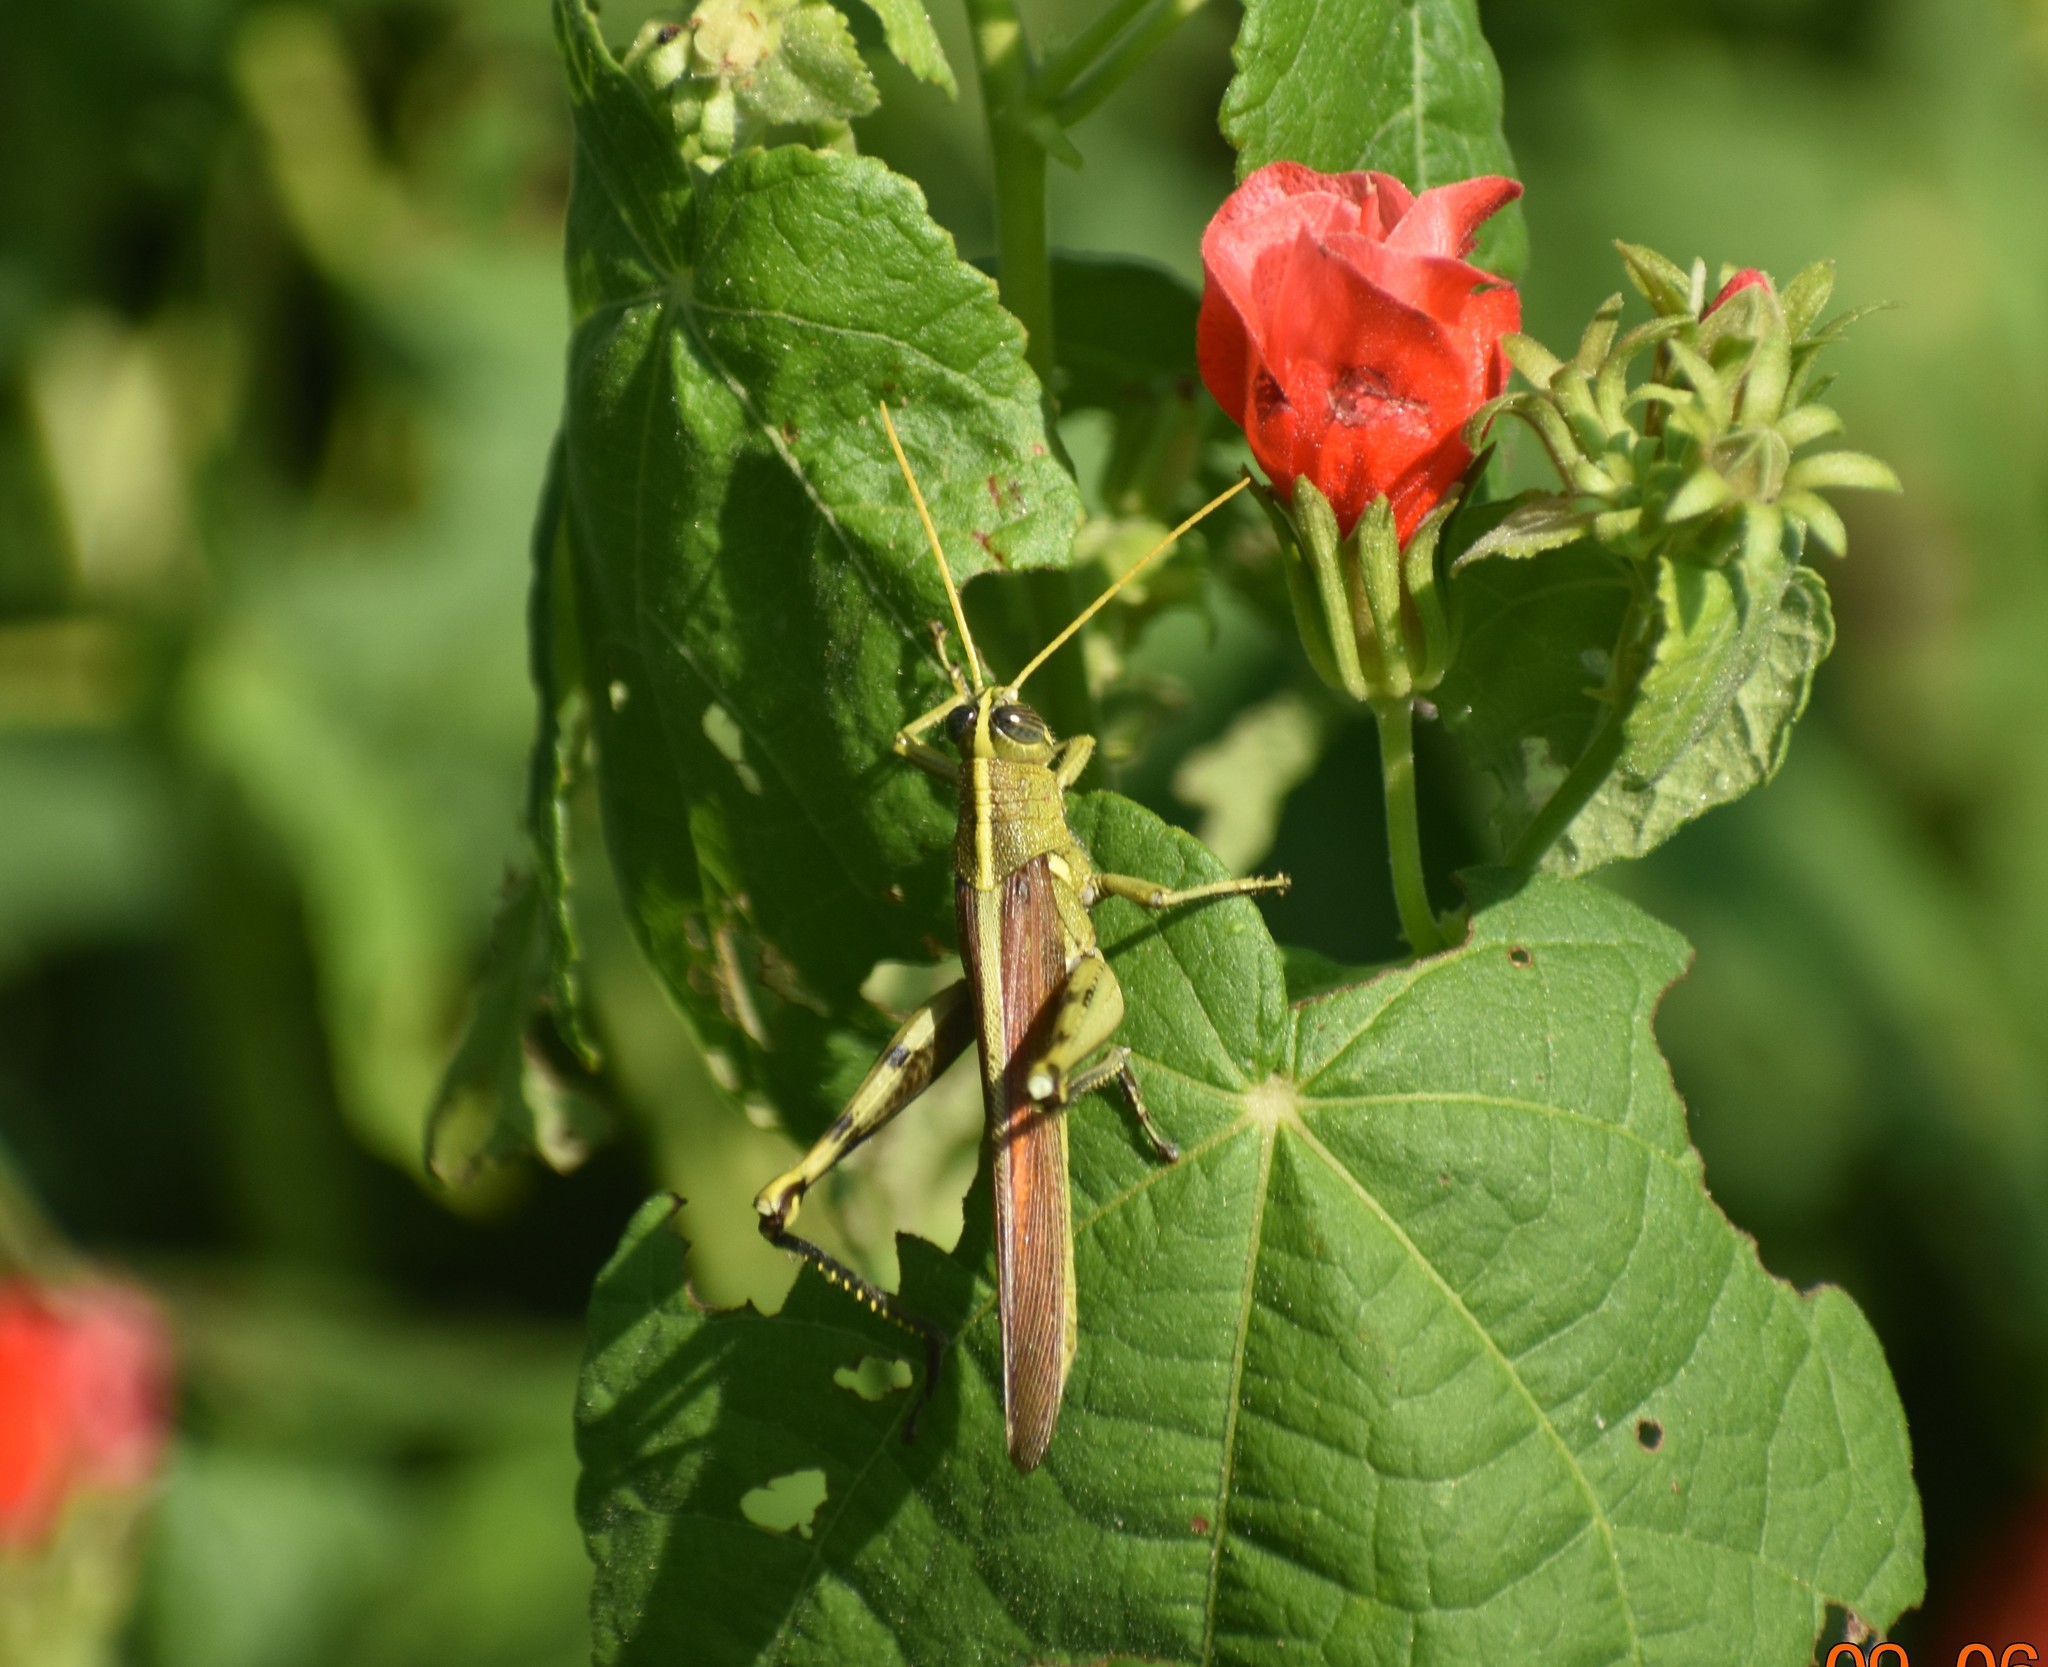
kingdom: Animalia
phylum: Arthropoda
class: Insecta
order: Orthoptera
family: Acrididae
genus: Schistocerca
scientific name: Schistocerca obscura
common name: Obscure bird grasshopper
